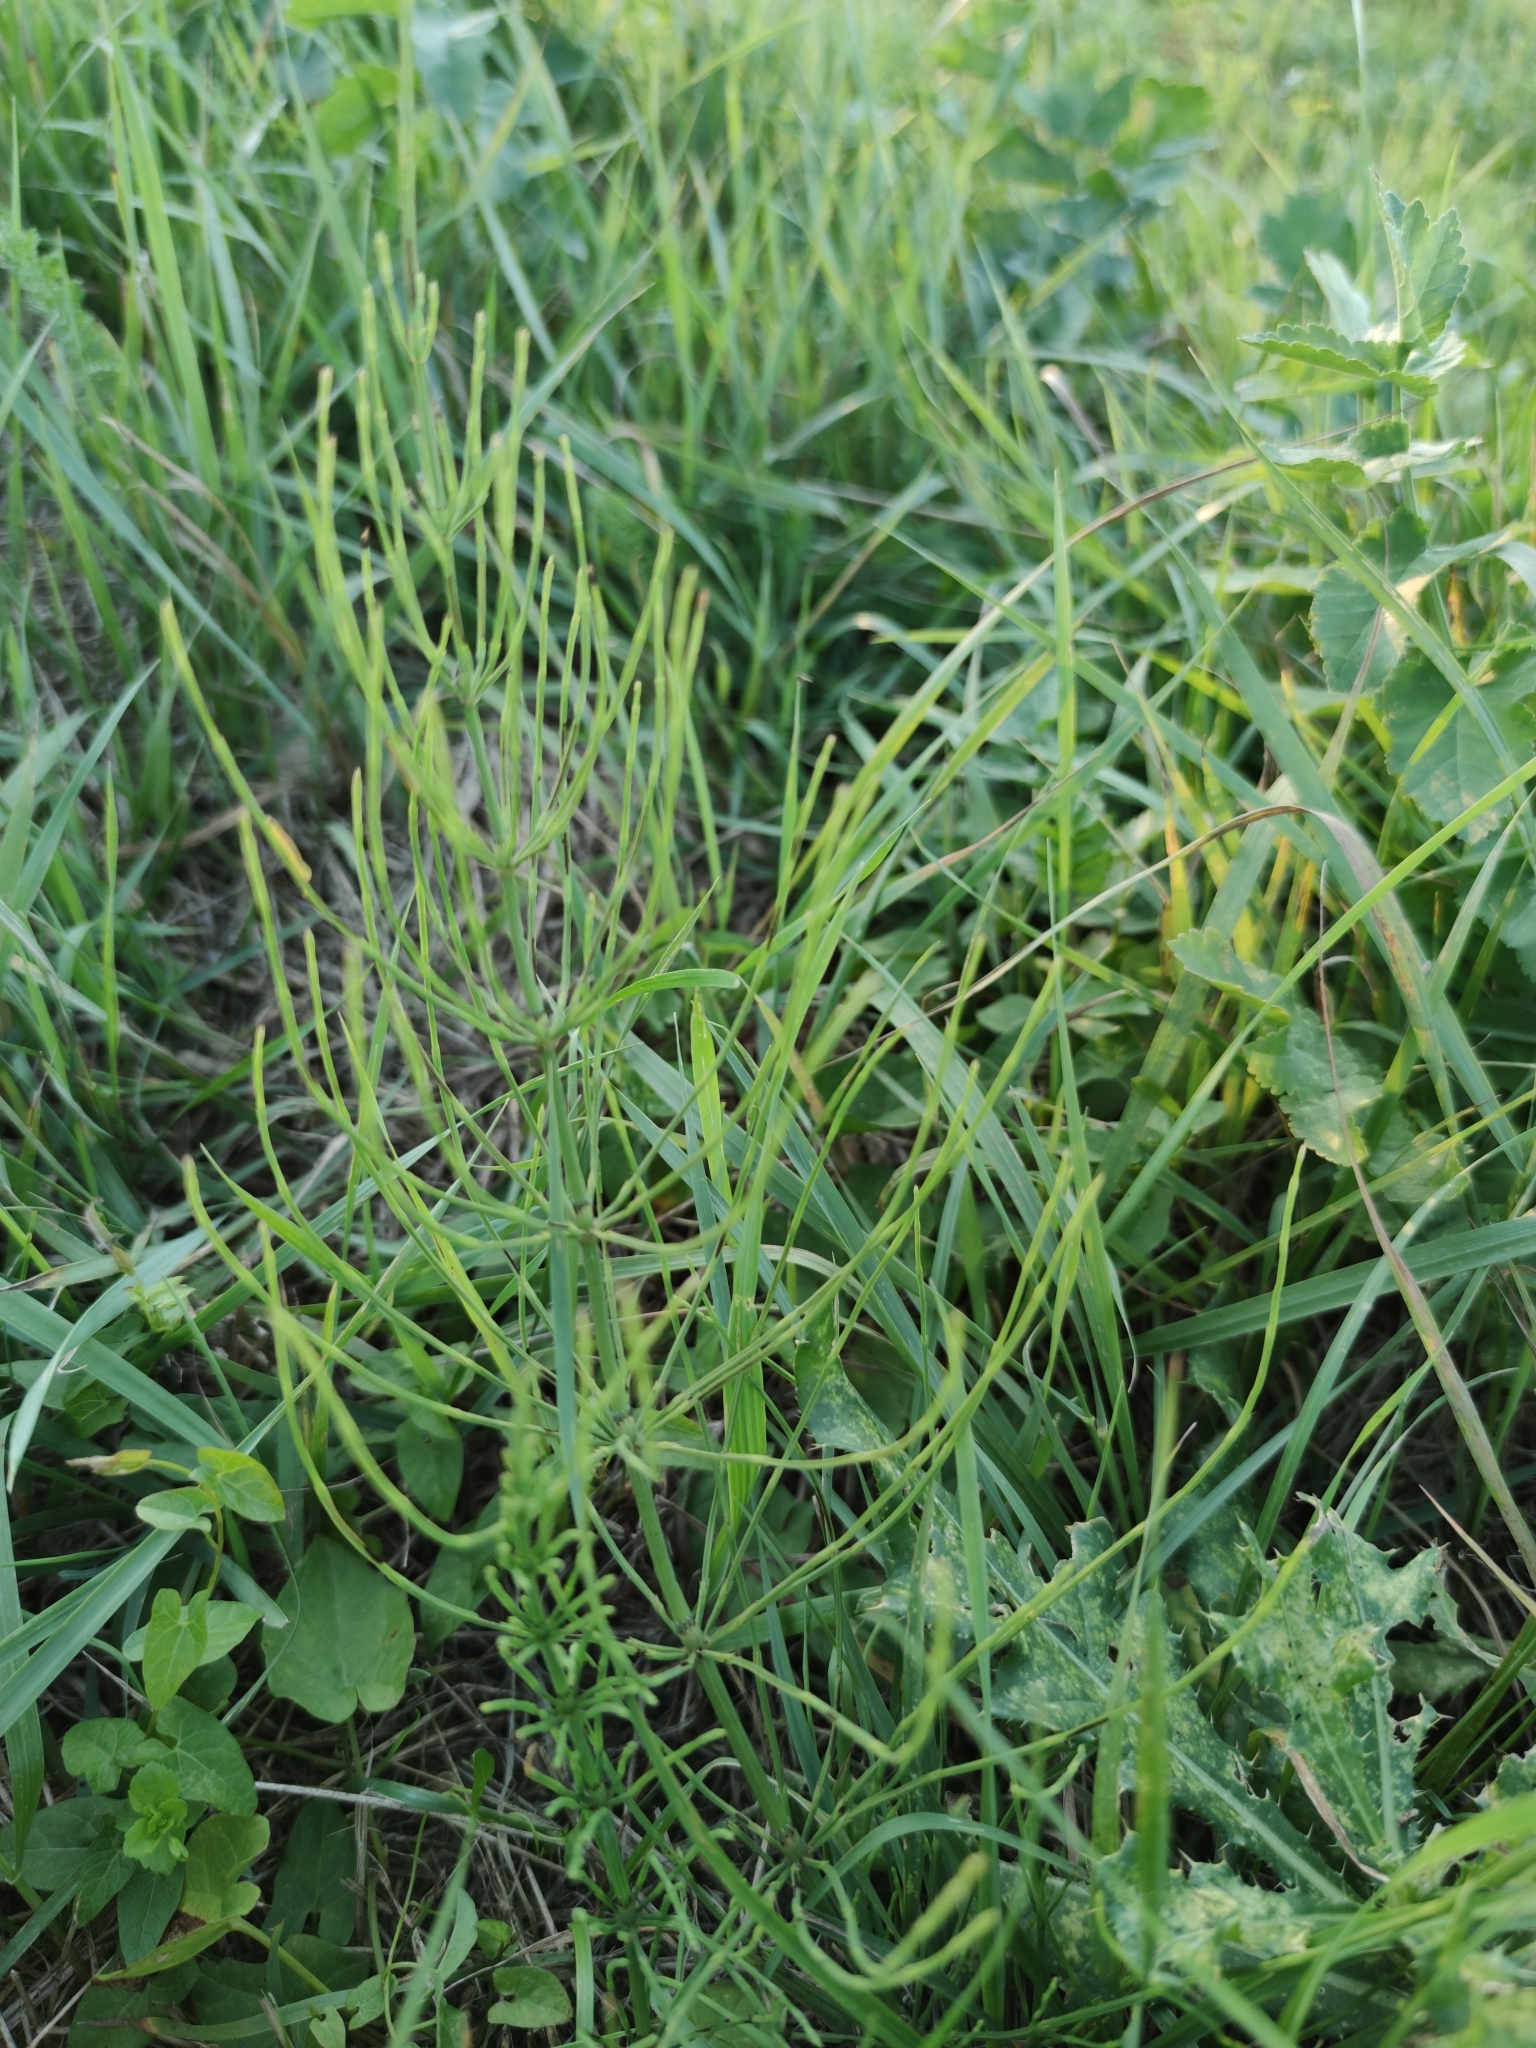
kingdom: Plantae
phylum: Tracheophyta
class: Polypodiopsida
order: Equisetales
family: Equisetaceae
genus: Equisetum
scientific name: Equisetum arvense
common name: Field horsetail
